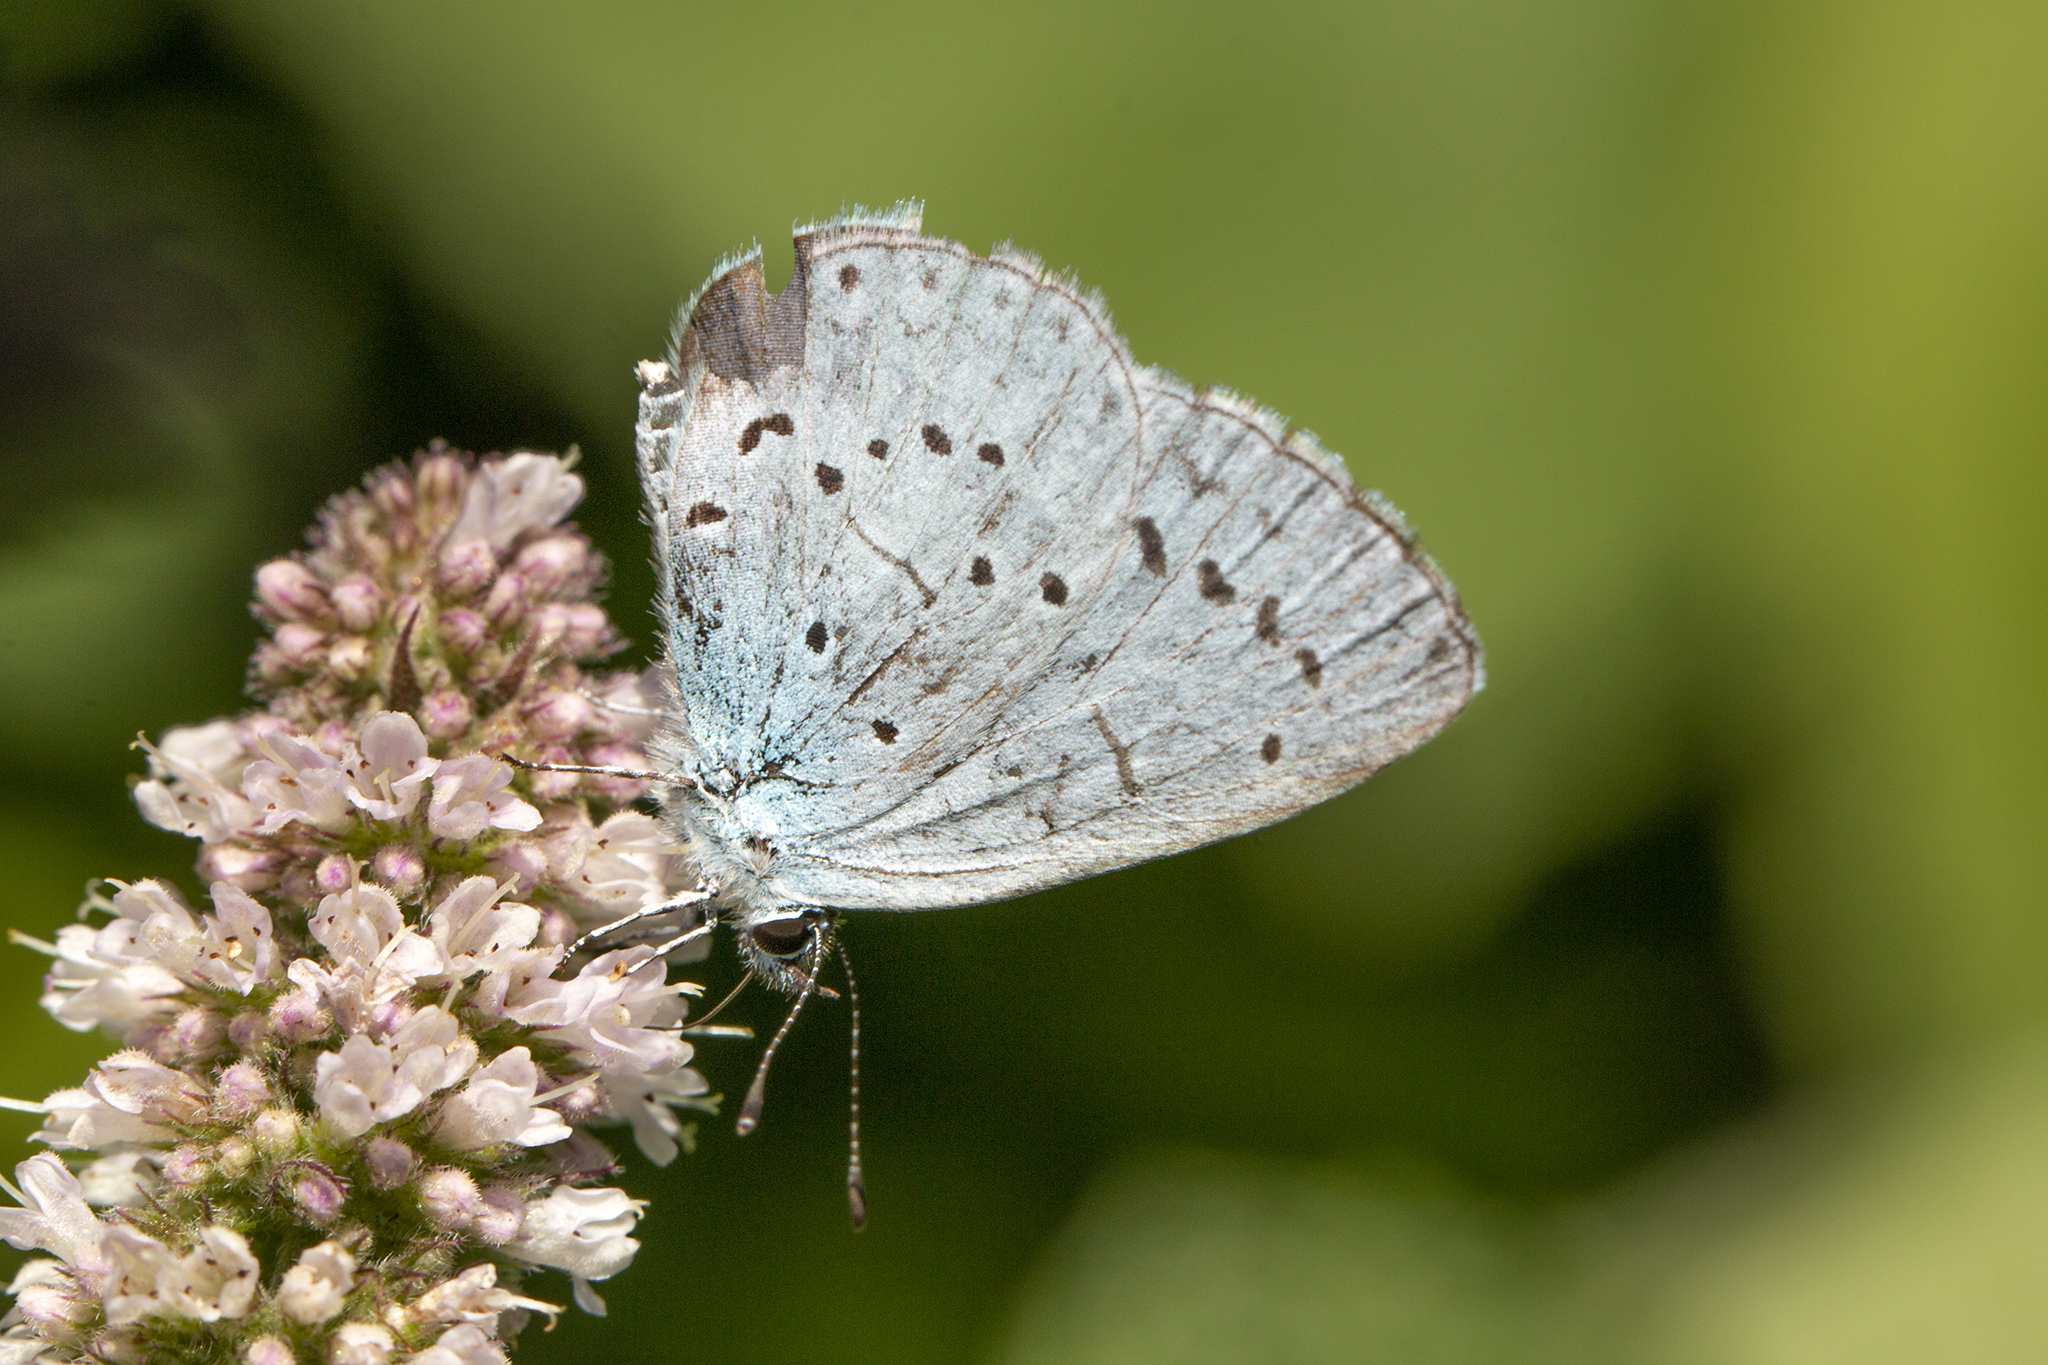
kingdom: Animalia
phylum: Arthropoda
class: Insecta
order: Lepidoptera
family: Lycaenidae
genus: Celastrina
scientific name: Celastrina argiolus
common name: Holly blue
